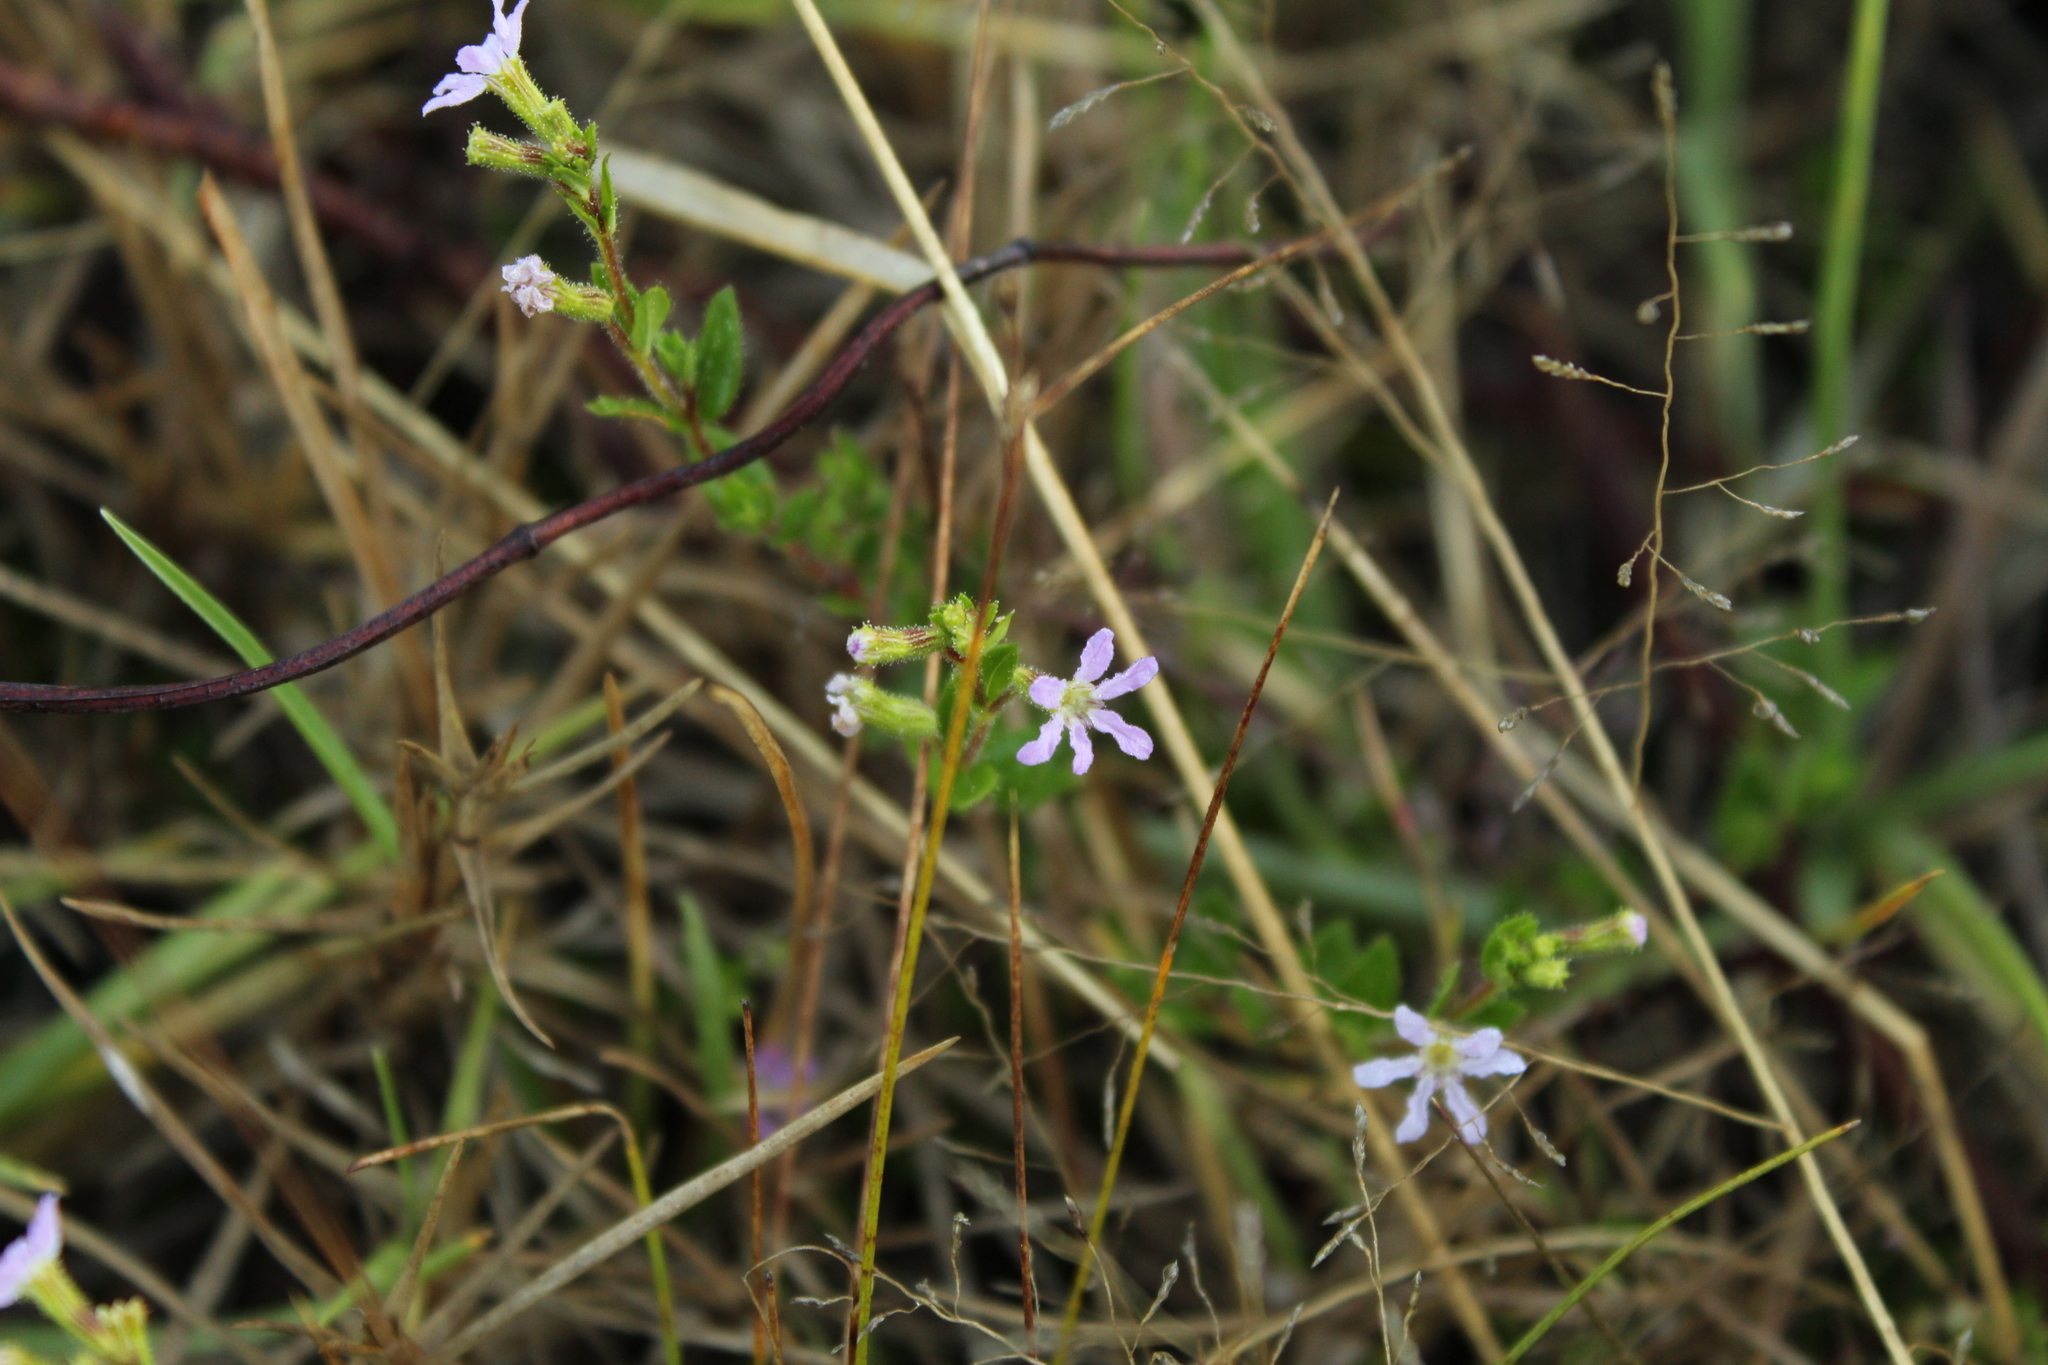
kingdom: Plantae
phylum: Tracheophyta
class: Magnoliopsida
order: Myrtales
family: Lythraceae
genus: Cuphea
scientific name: Cuphea ciliata
